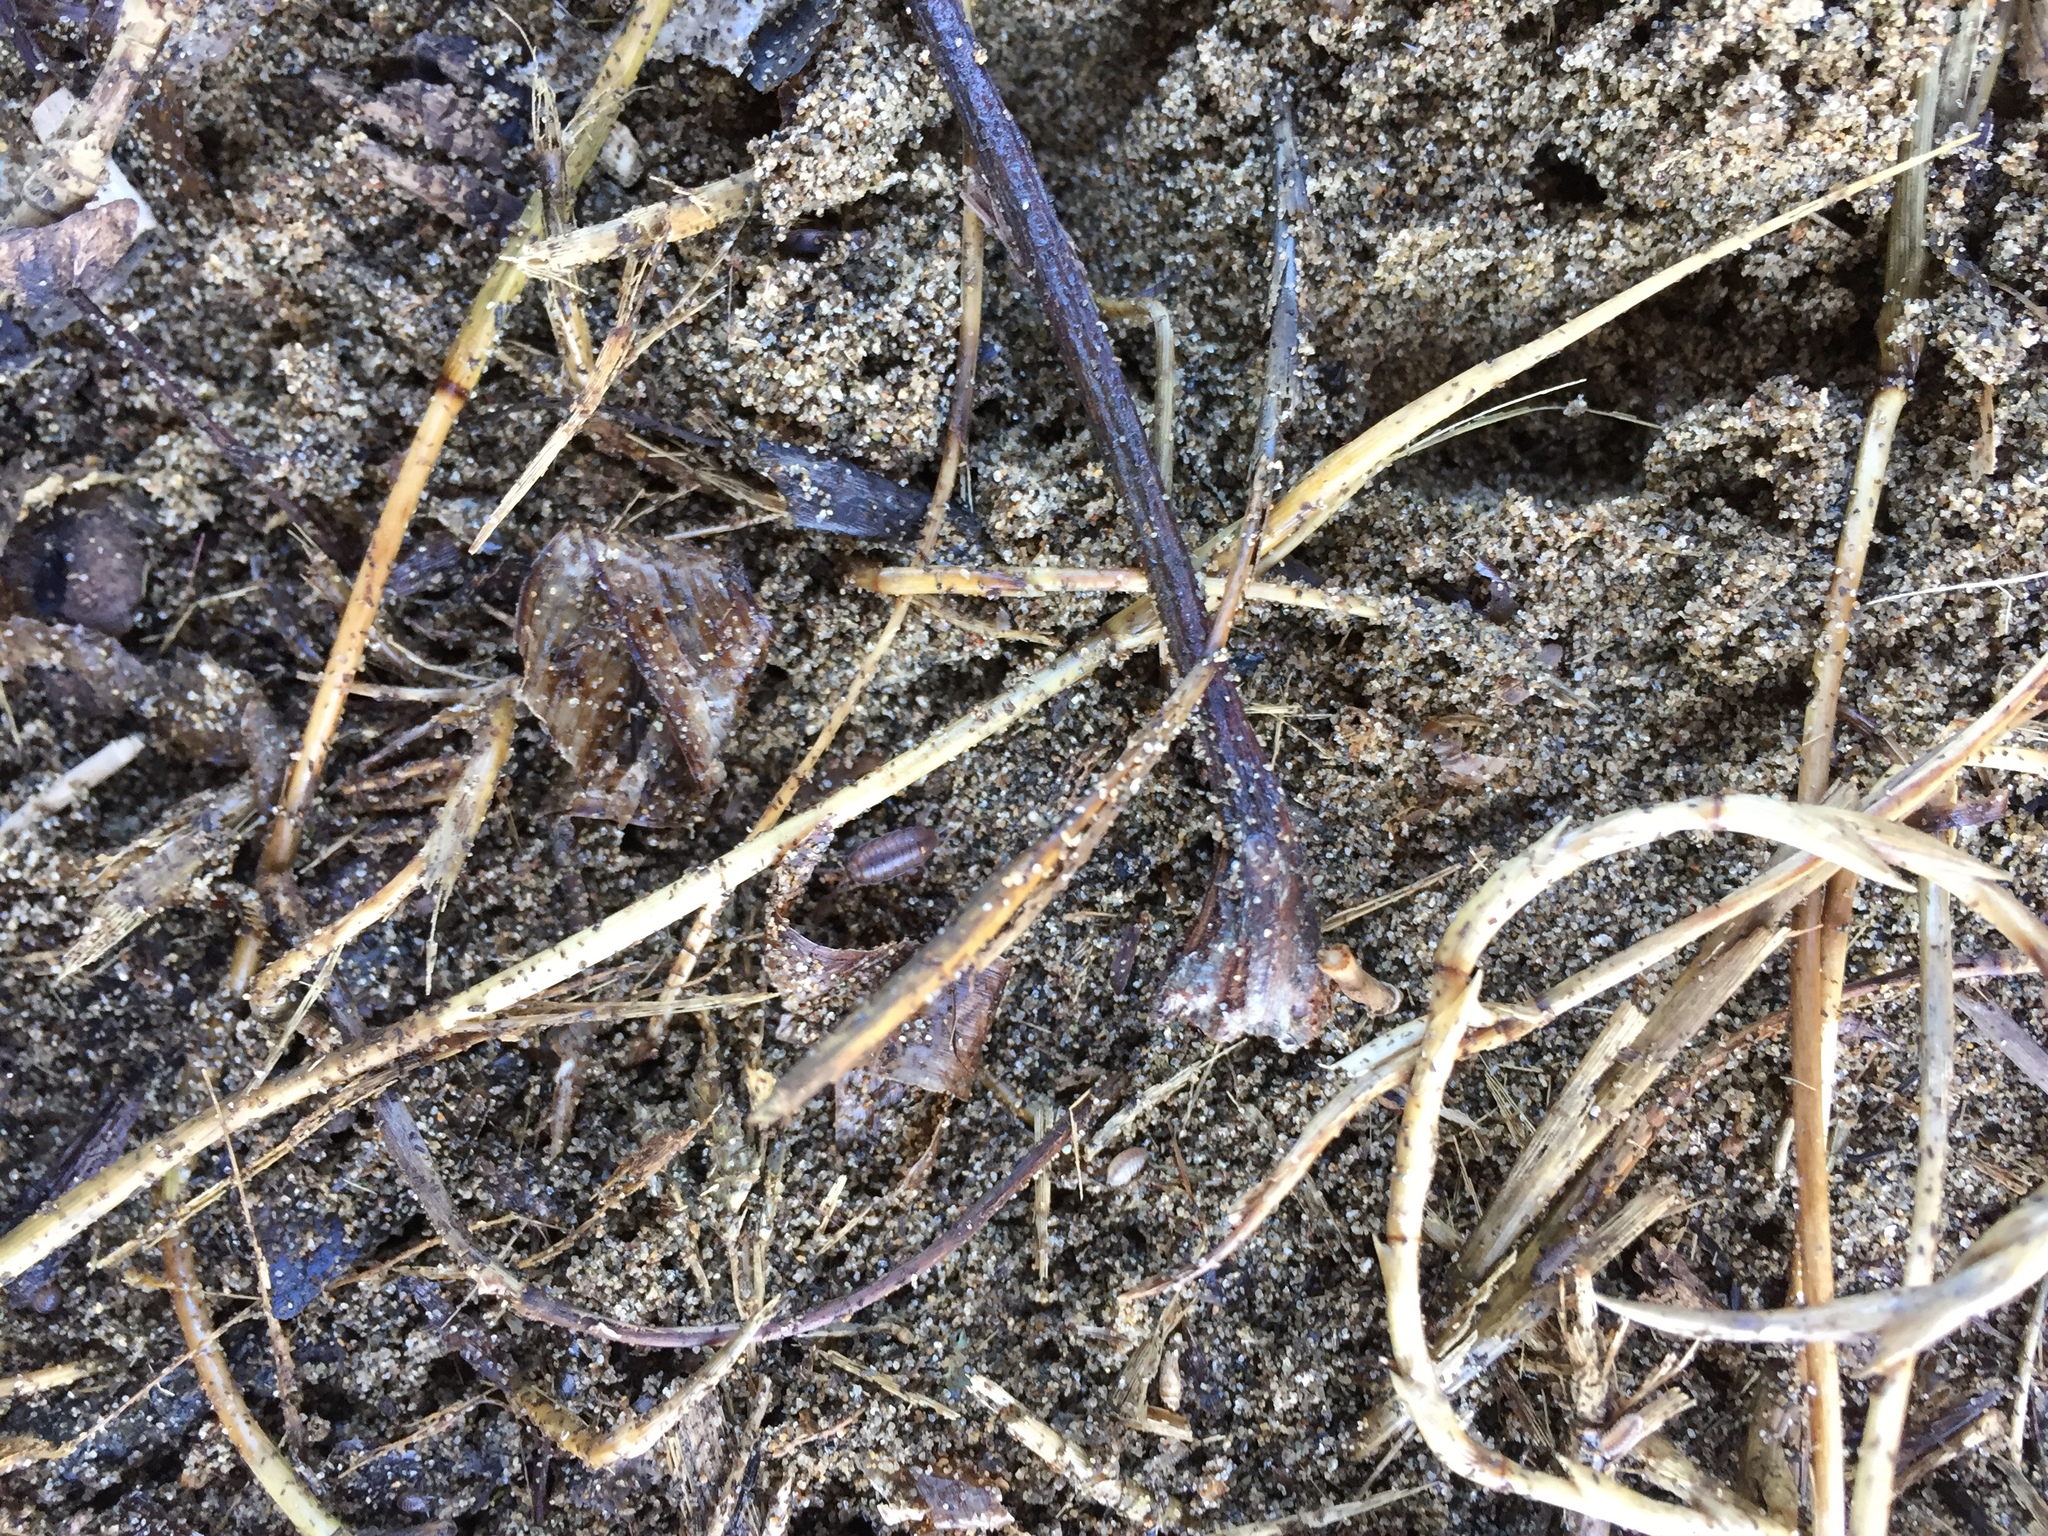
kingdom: Animalia
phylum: Arthropoda
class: Malacostraca
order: Isopoda
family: Halophilosciidae
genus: Littorophiloscia
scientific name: Littorophiloscia richardsonae
